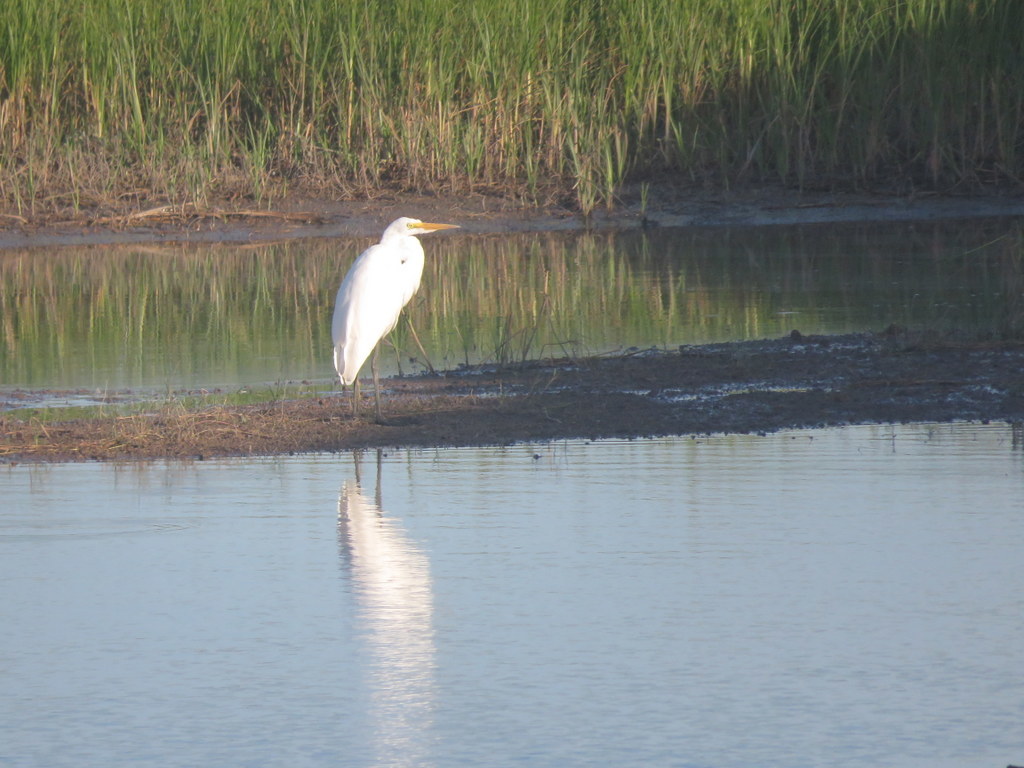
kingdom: Animalia
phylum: Chordata
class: Aves
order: Pelecaniformes
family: Ardeidae
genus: Ardea
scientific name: Ardea alba
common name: Great egret
